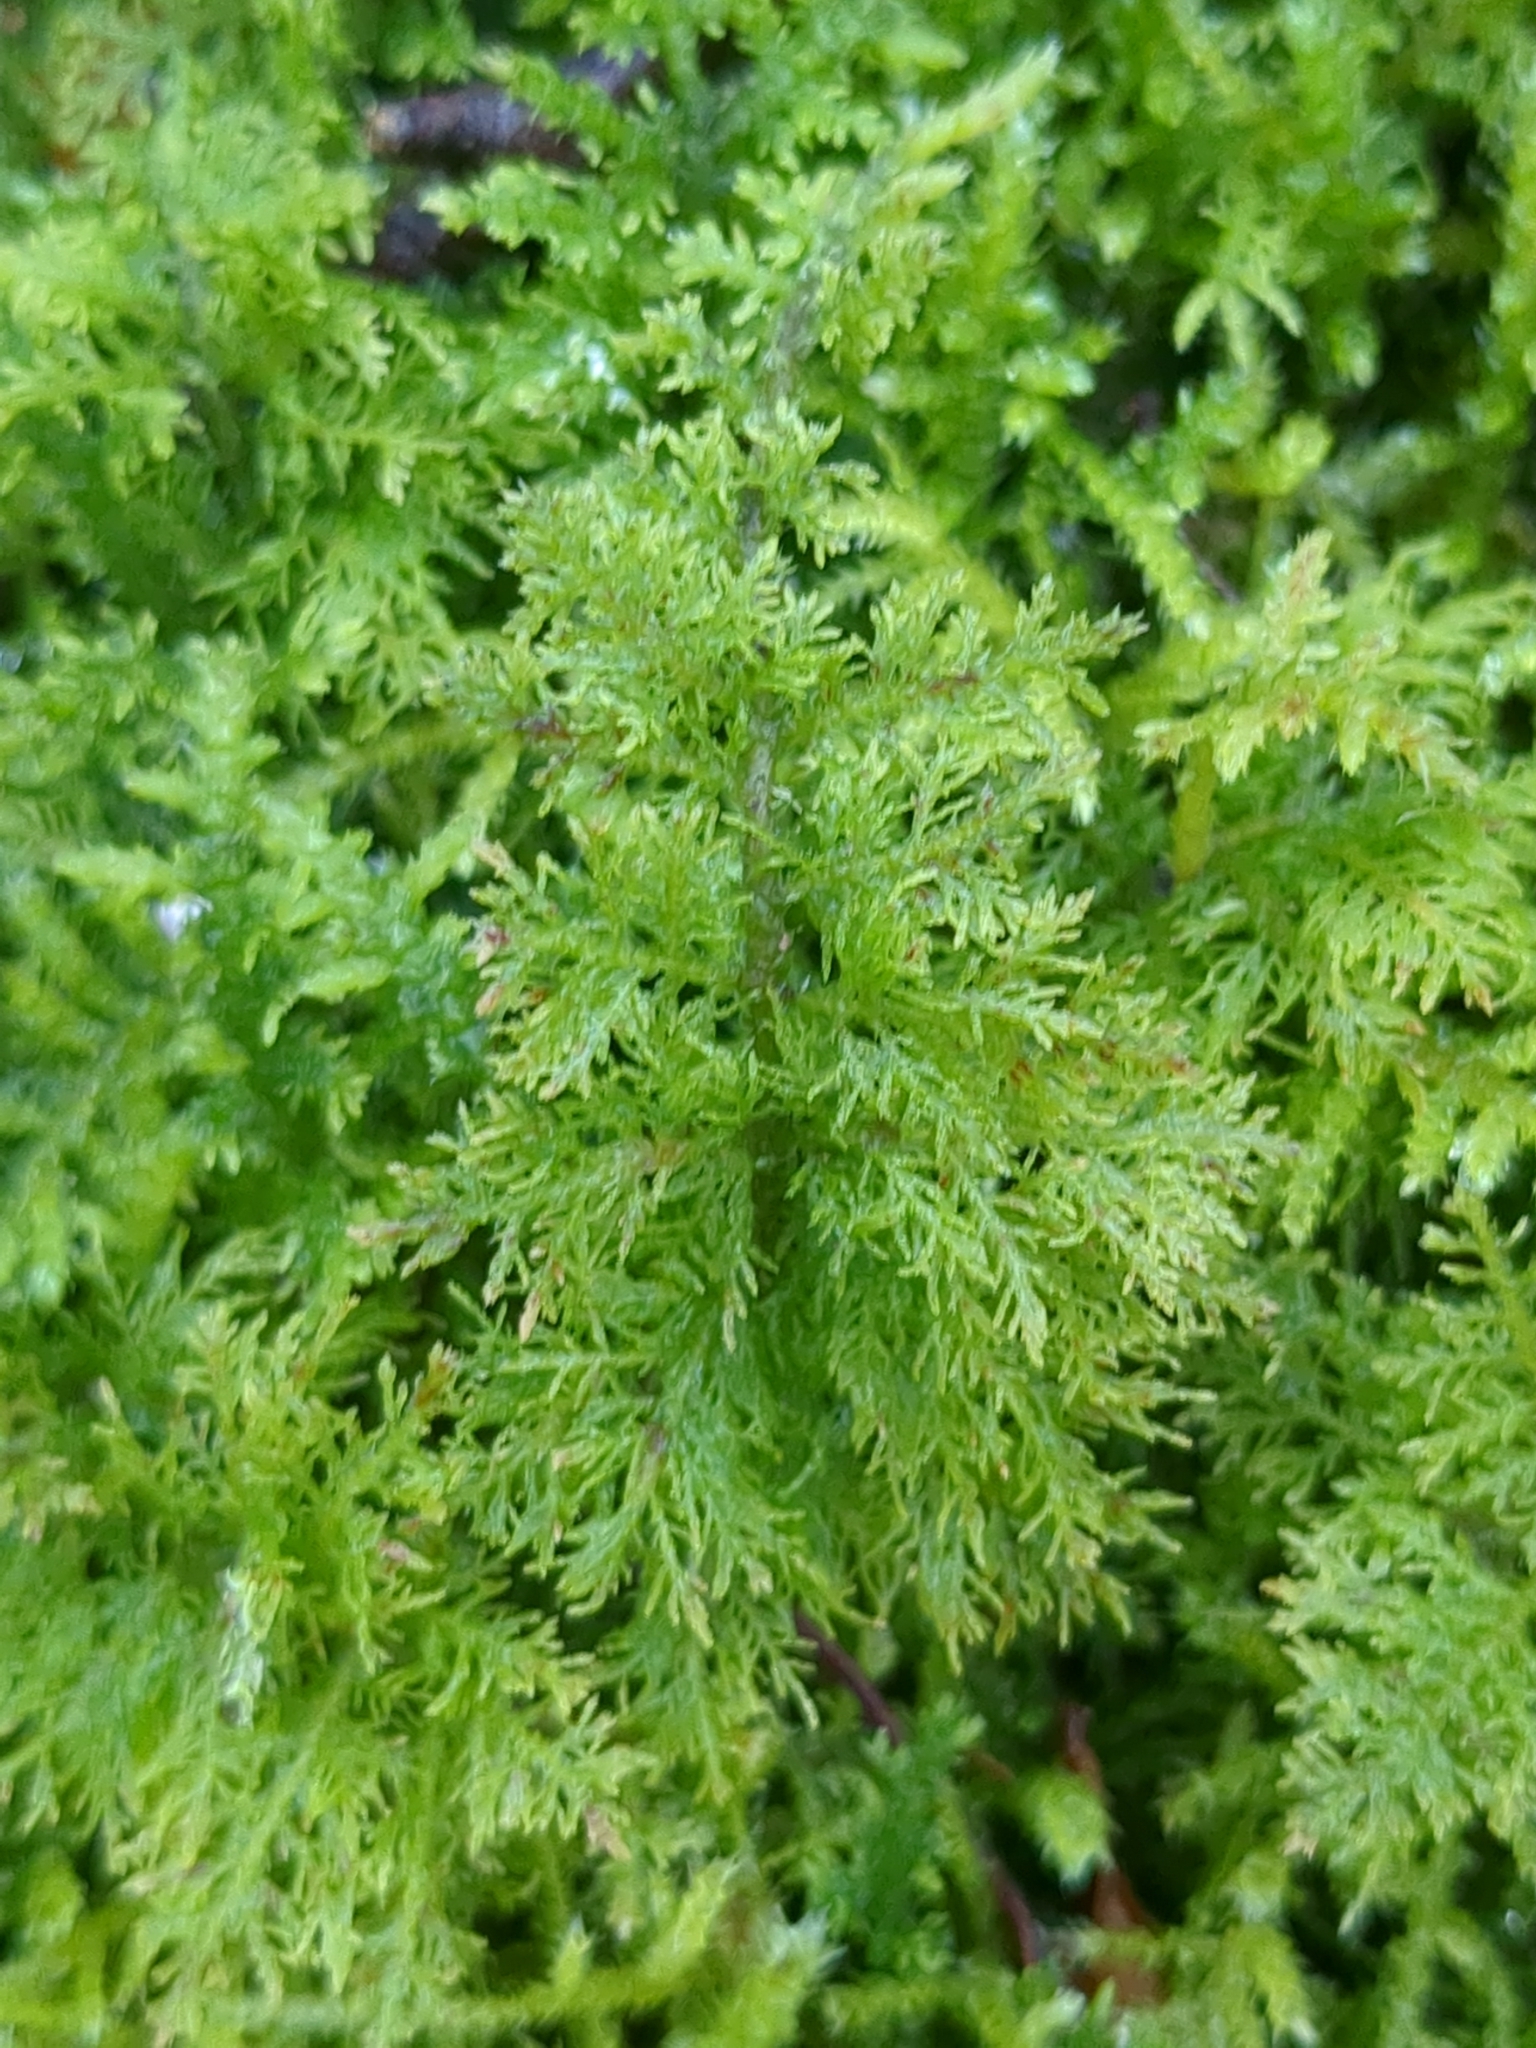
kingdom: Plantae
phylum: Bryophyta
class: Bryopsida
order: Hypnales
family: Thuidiaceae
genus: Thuidium
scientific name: Thuidium tamariscinum
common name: Common tamarisk-moss
